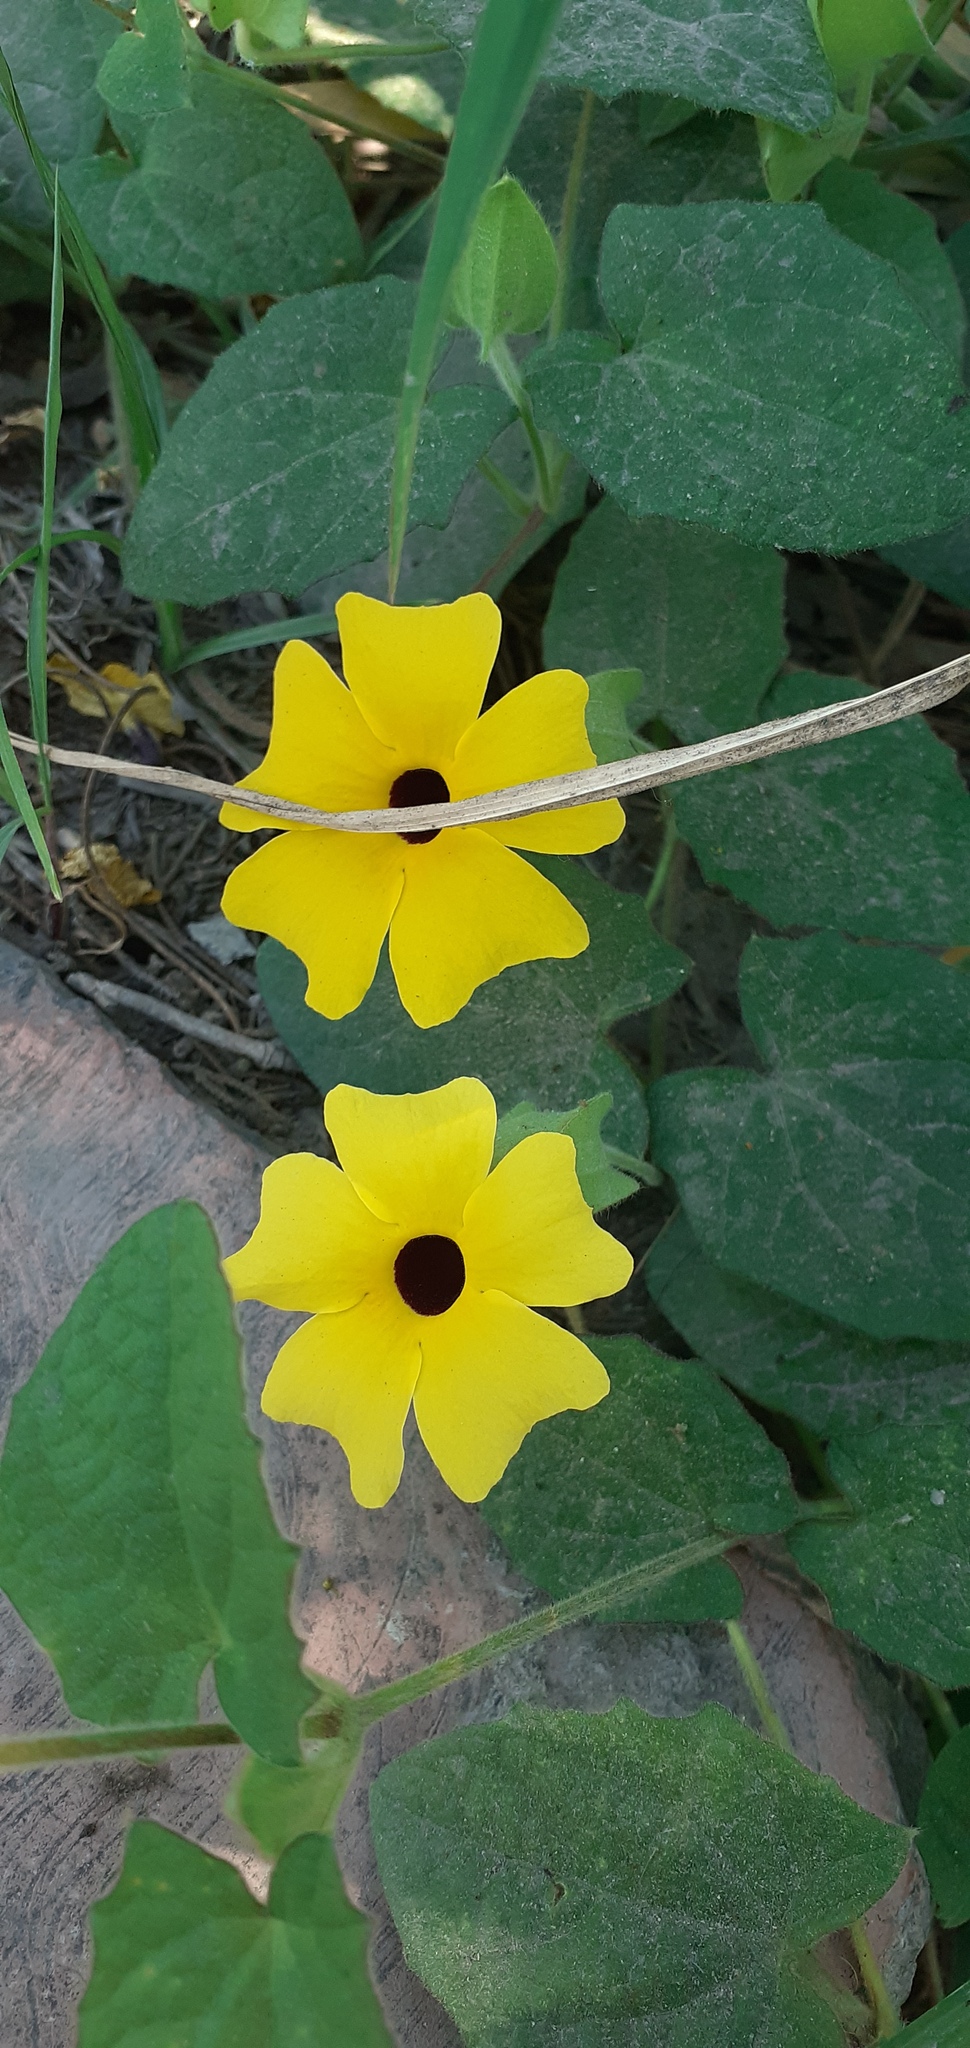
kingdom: Plantae
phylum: Tracheophyta
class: Magnoliopsida
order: Lamiales
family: Acanthaceae
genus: Thunbergia
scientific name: Thunbergia alata
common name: Blackeyed susan vine
